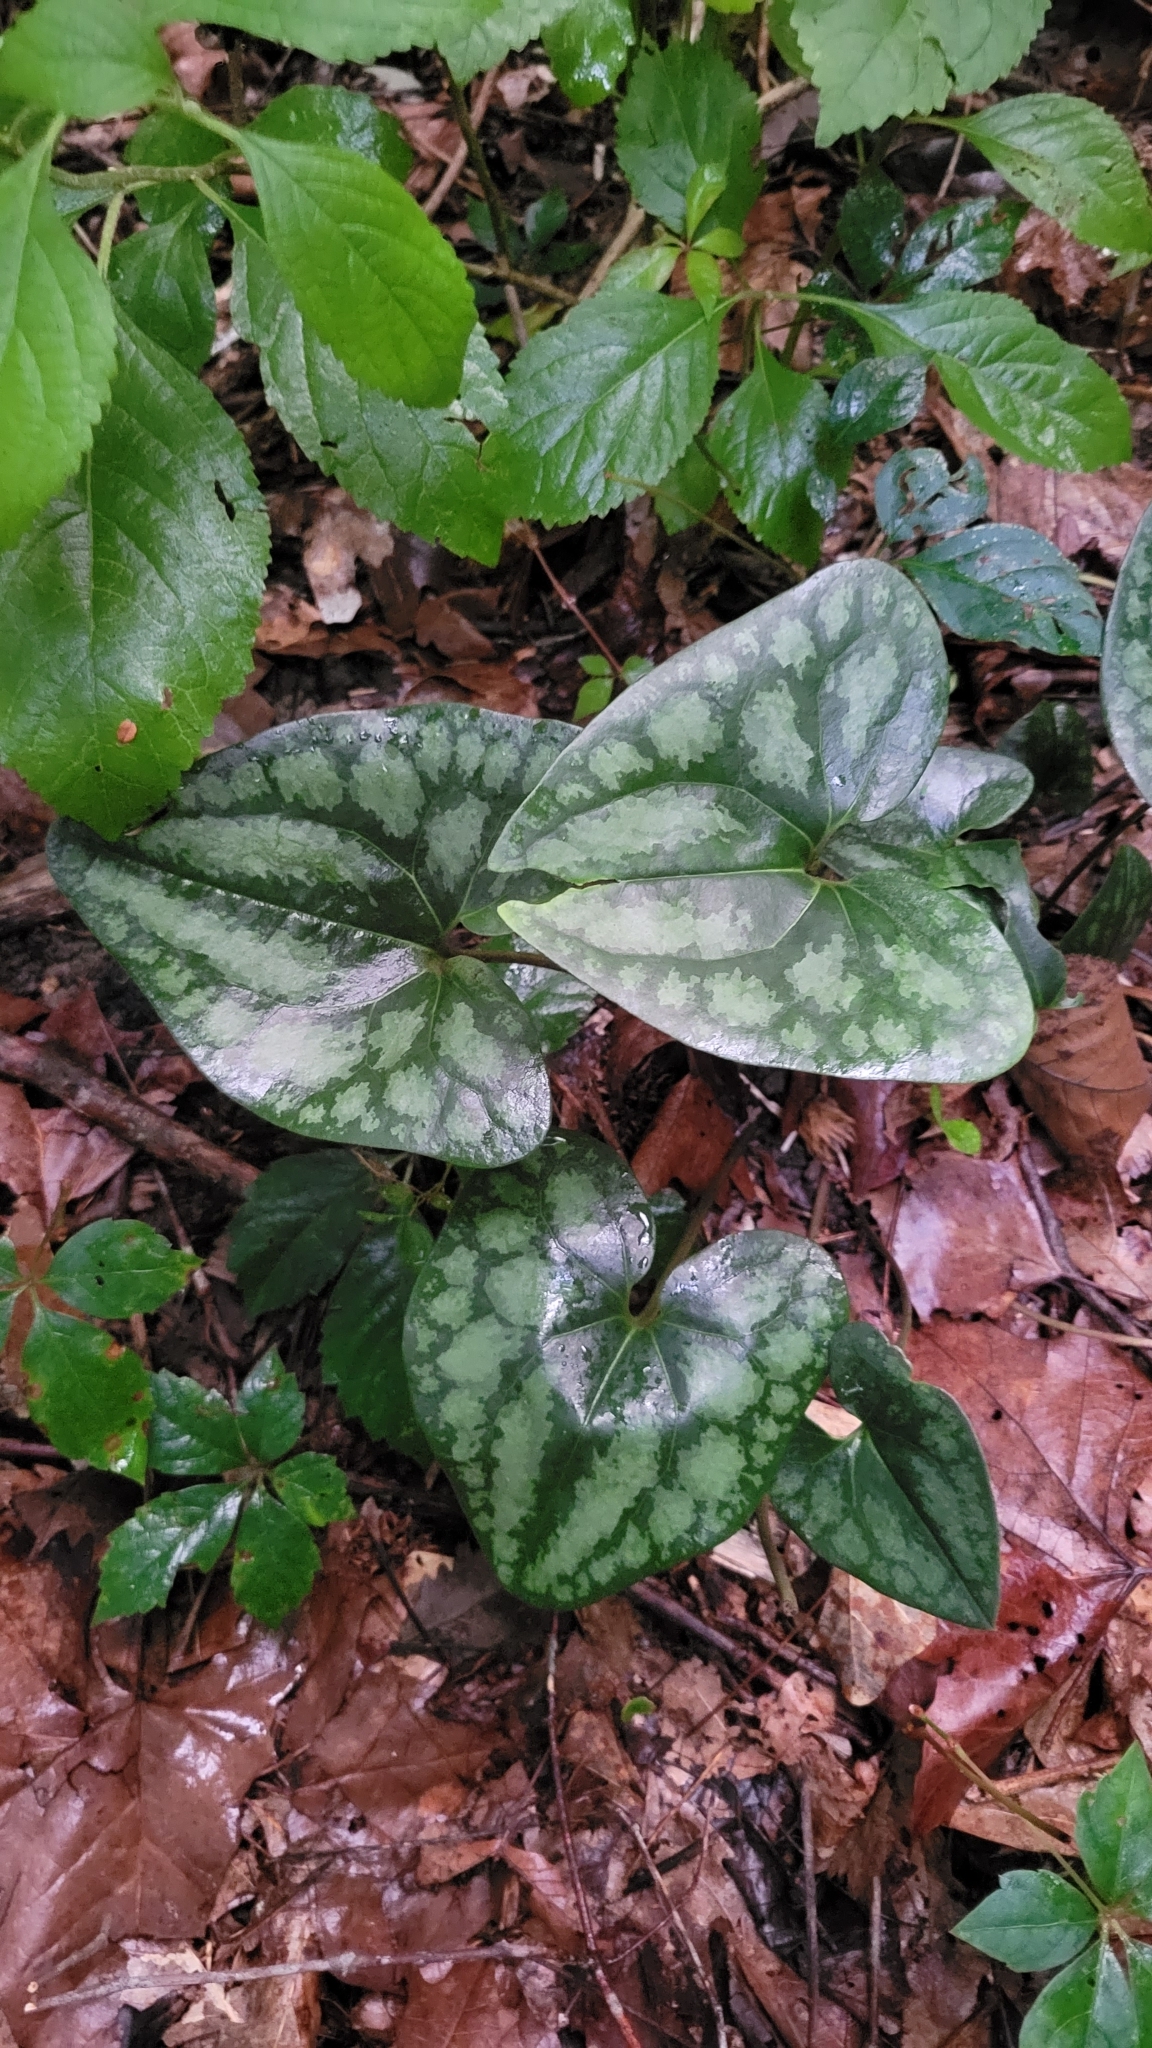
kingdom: Plantae
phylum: Tracheophyta
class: Magnoliopsida
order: Piperales
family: Aristolochiaceae
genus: Hexastylis
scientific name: Hexastylis arifolia
